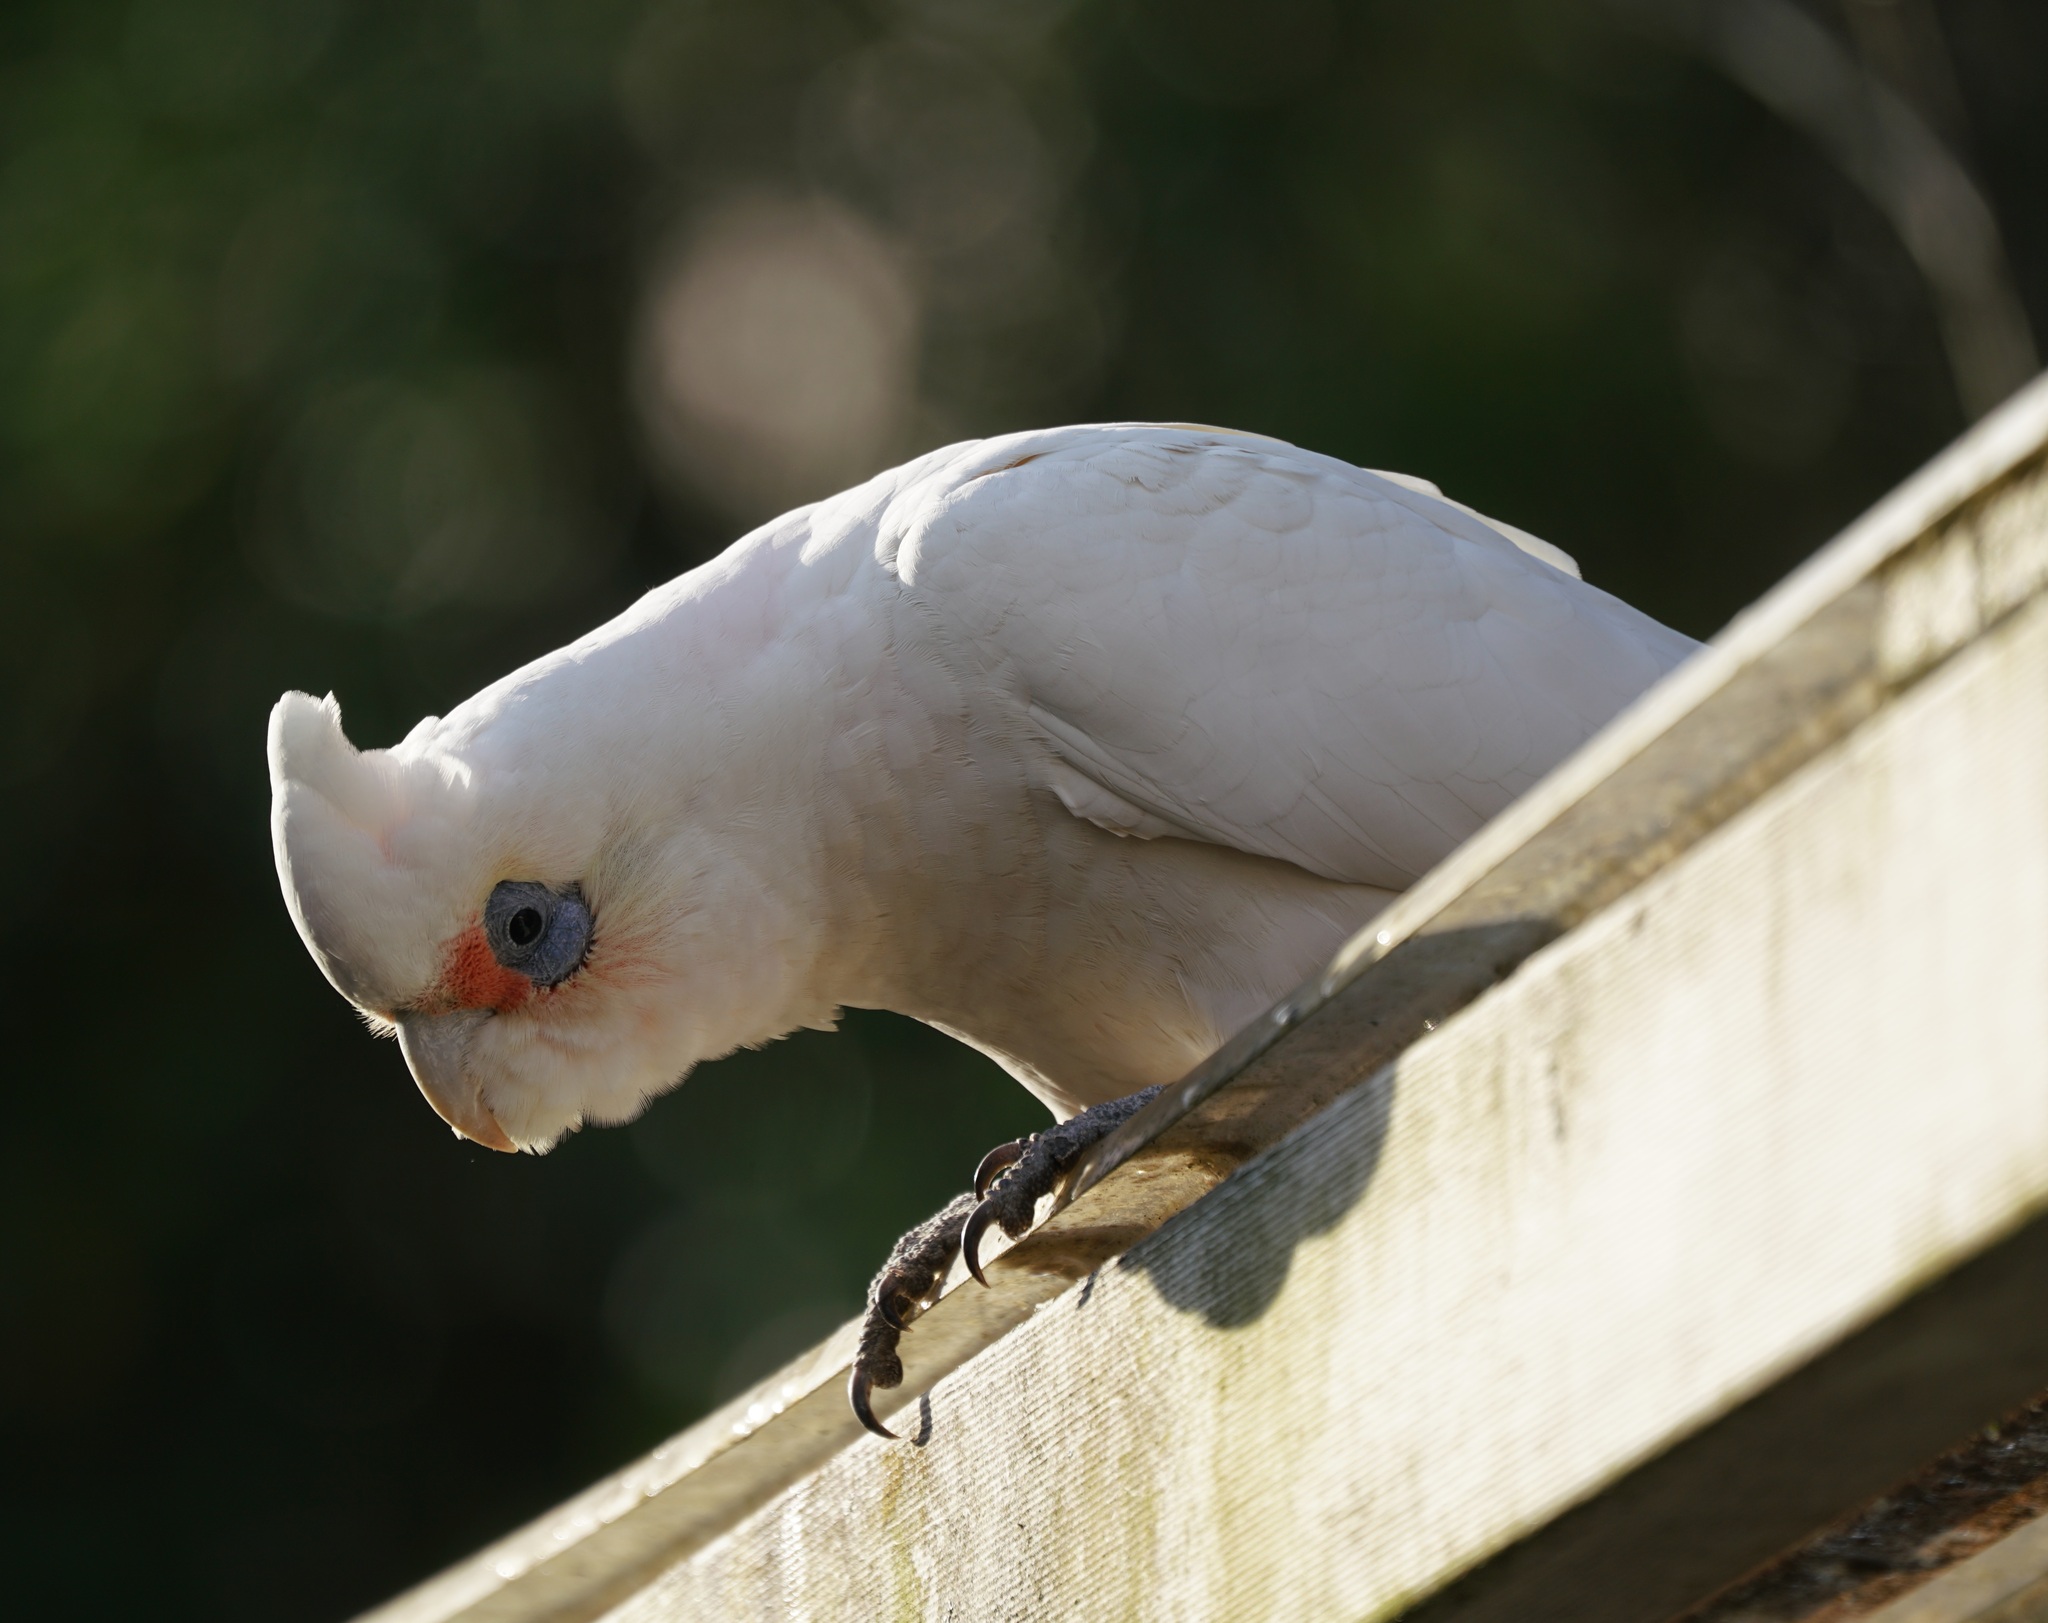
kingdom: Animalia
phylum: Chordata
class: Aves
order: Psittaciformes
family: Psittacidae
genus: Cacatua
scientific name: Cacatua sanguinea
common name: Little corella
